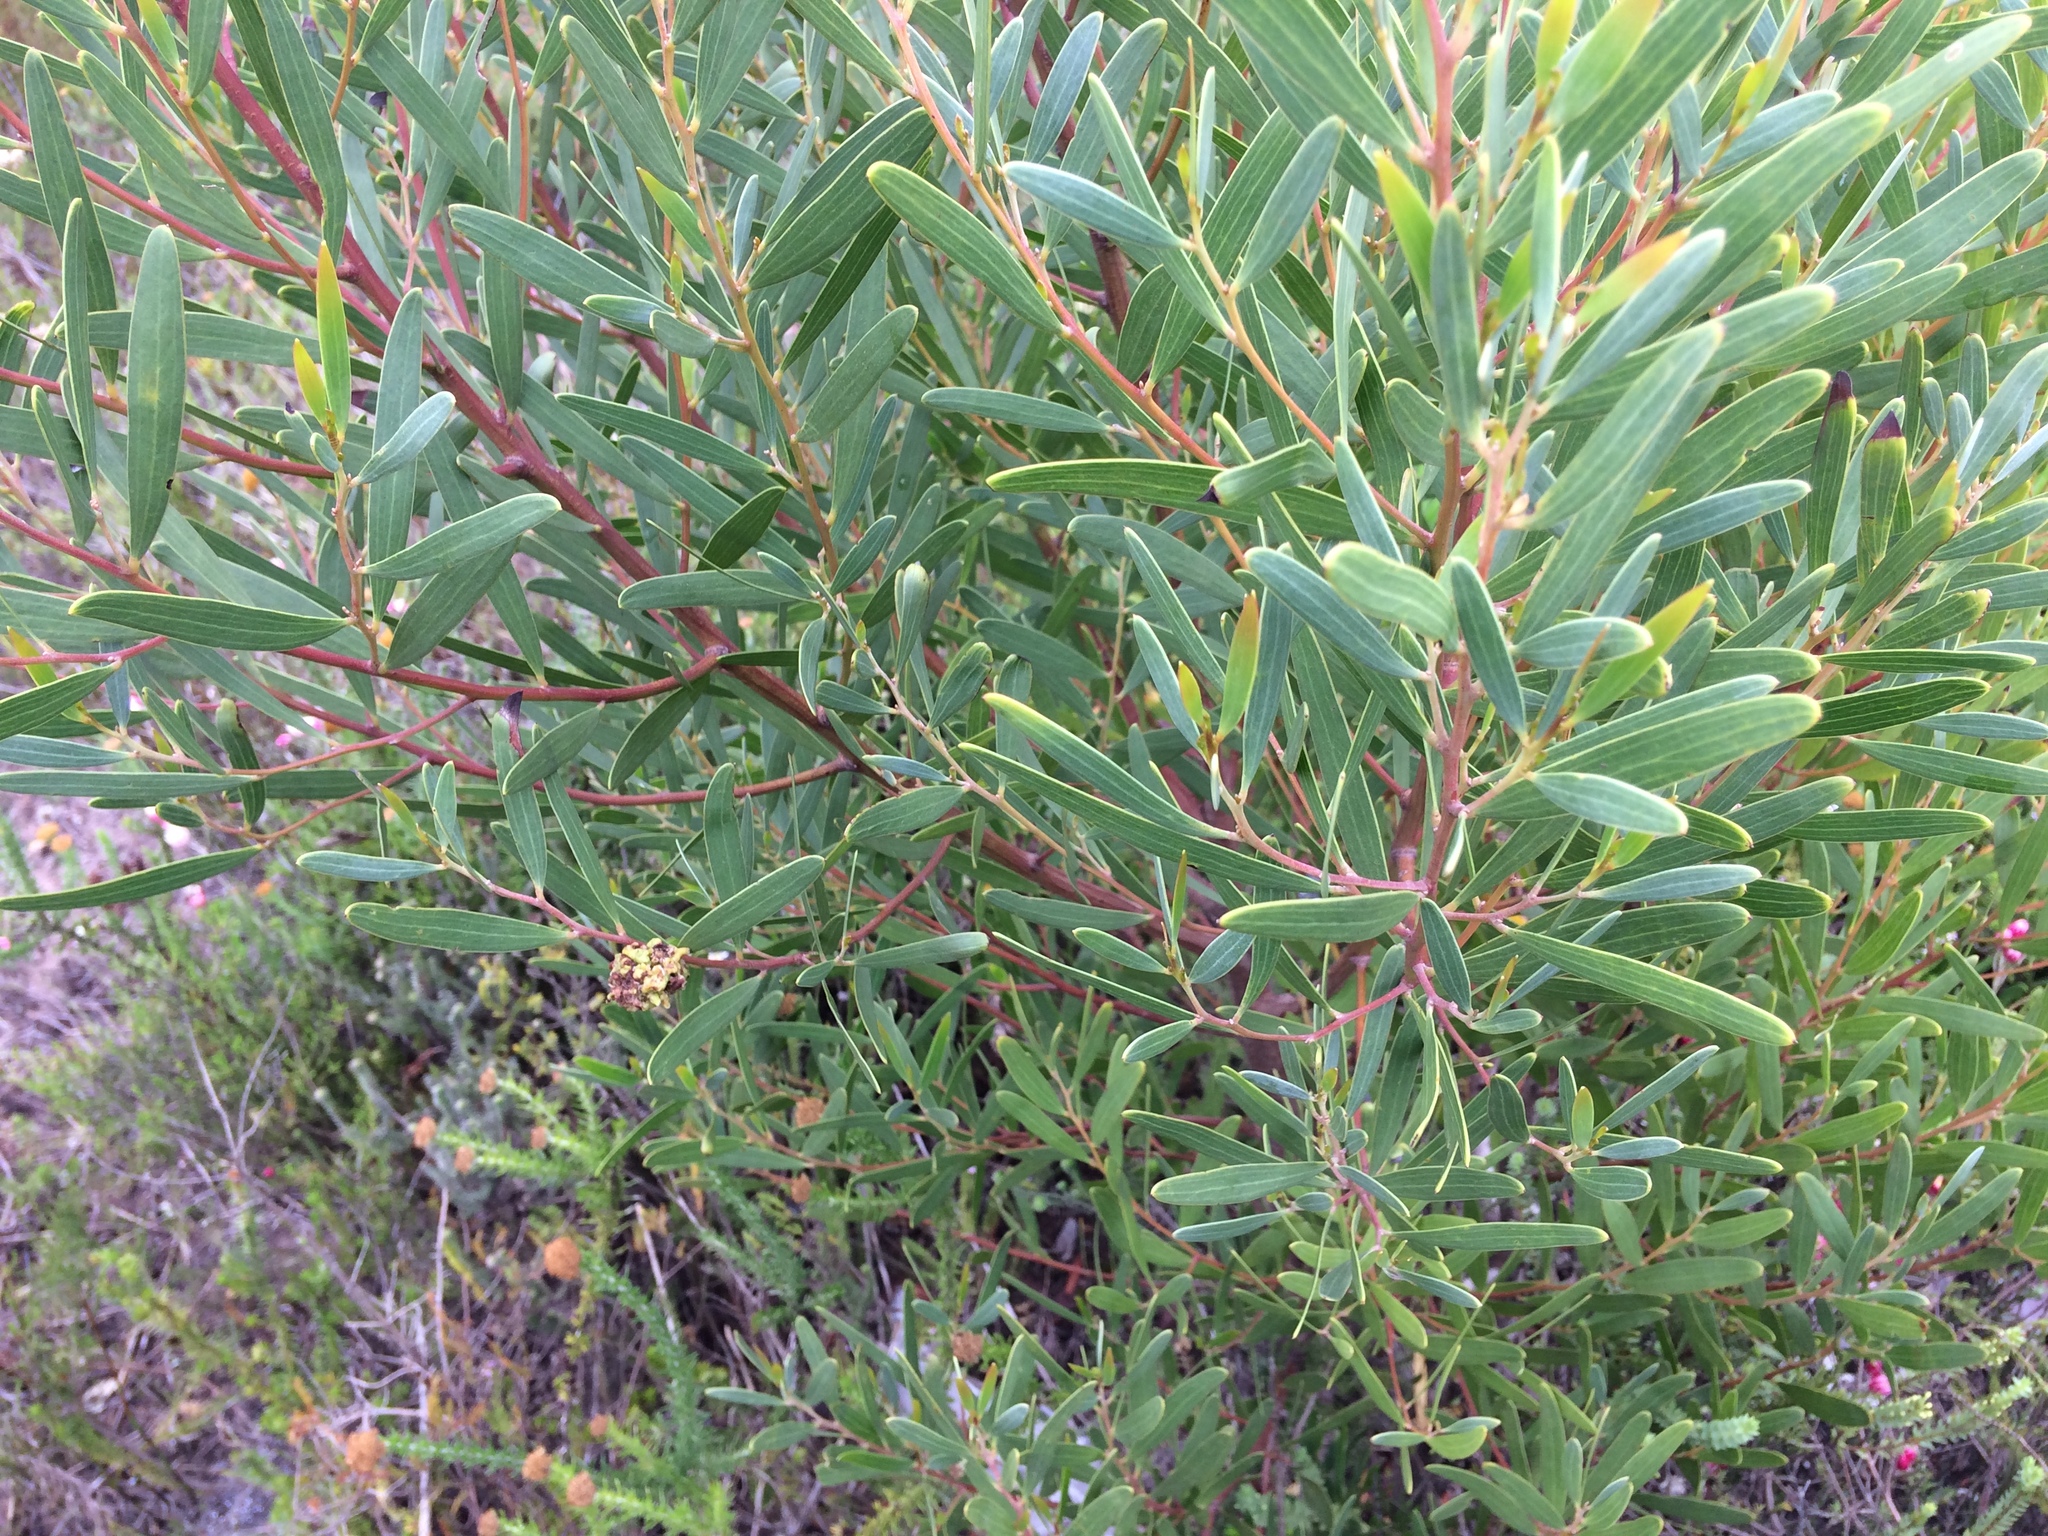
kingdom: Animalia
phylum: Arthropoda
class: Insecta
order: Diptera
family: Cecidomyiidae
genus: Dasineura
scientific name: Dasineura dielsi
